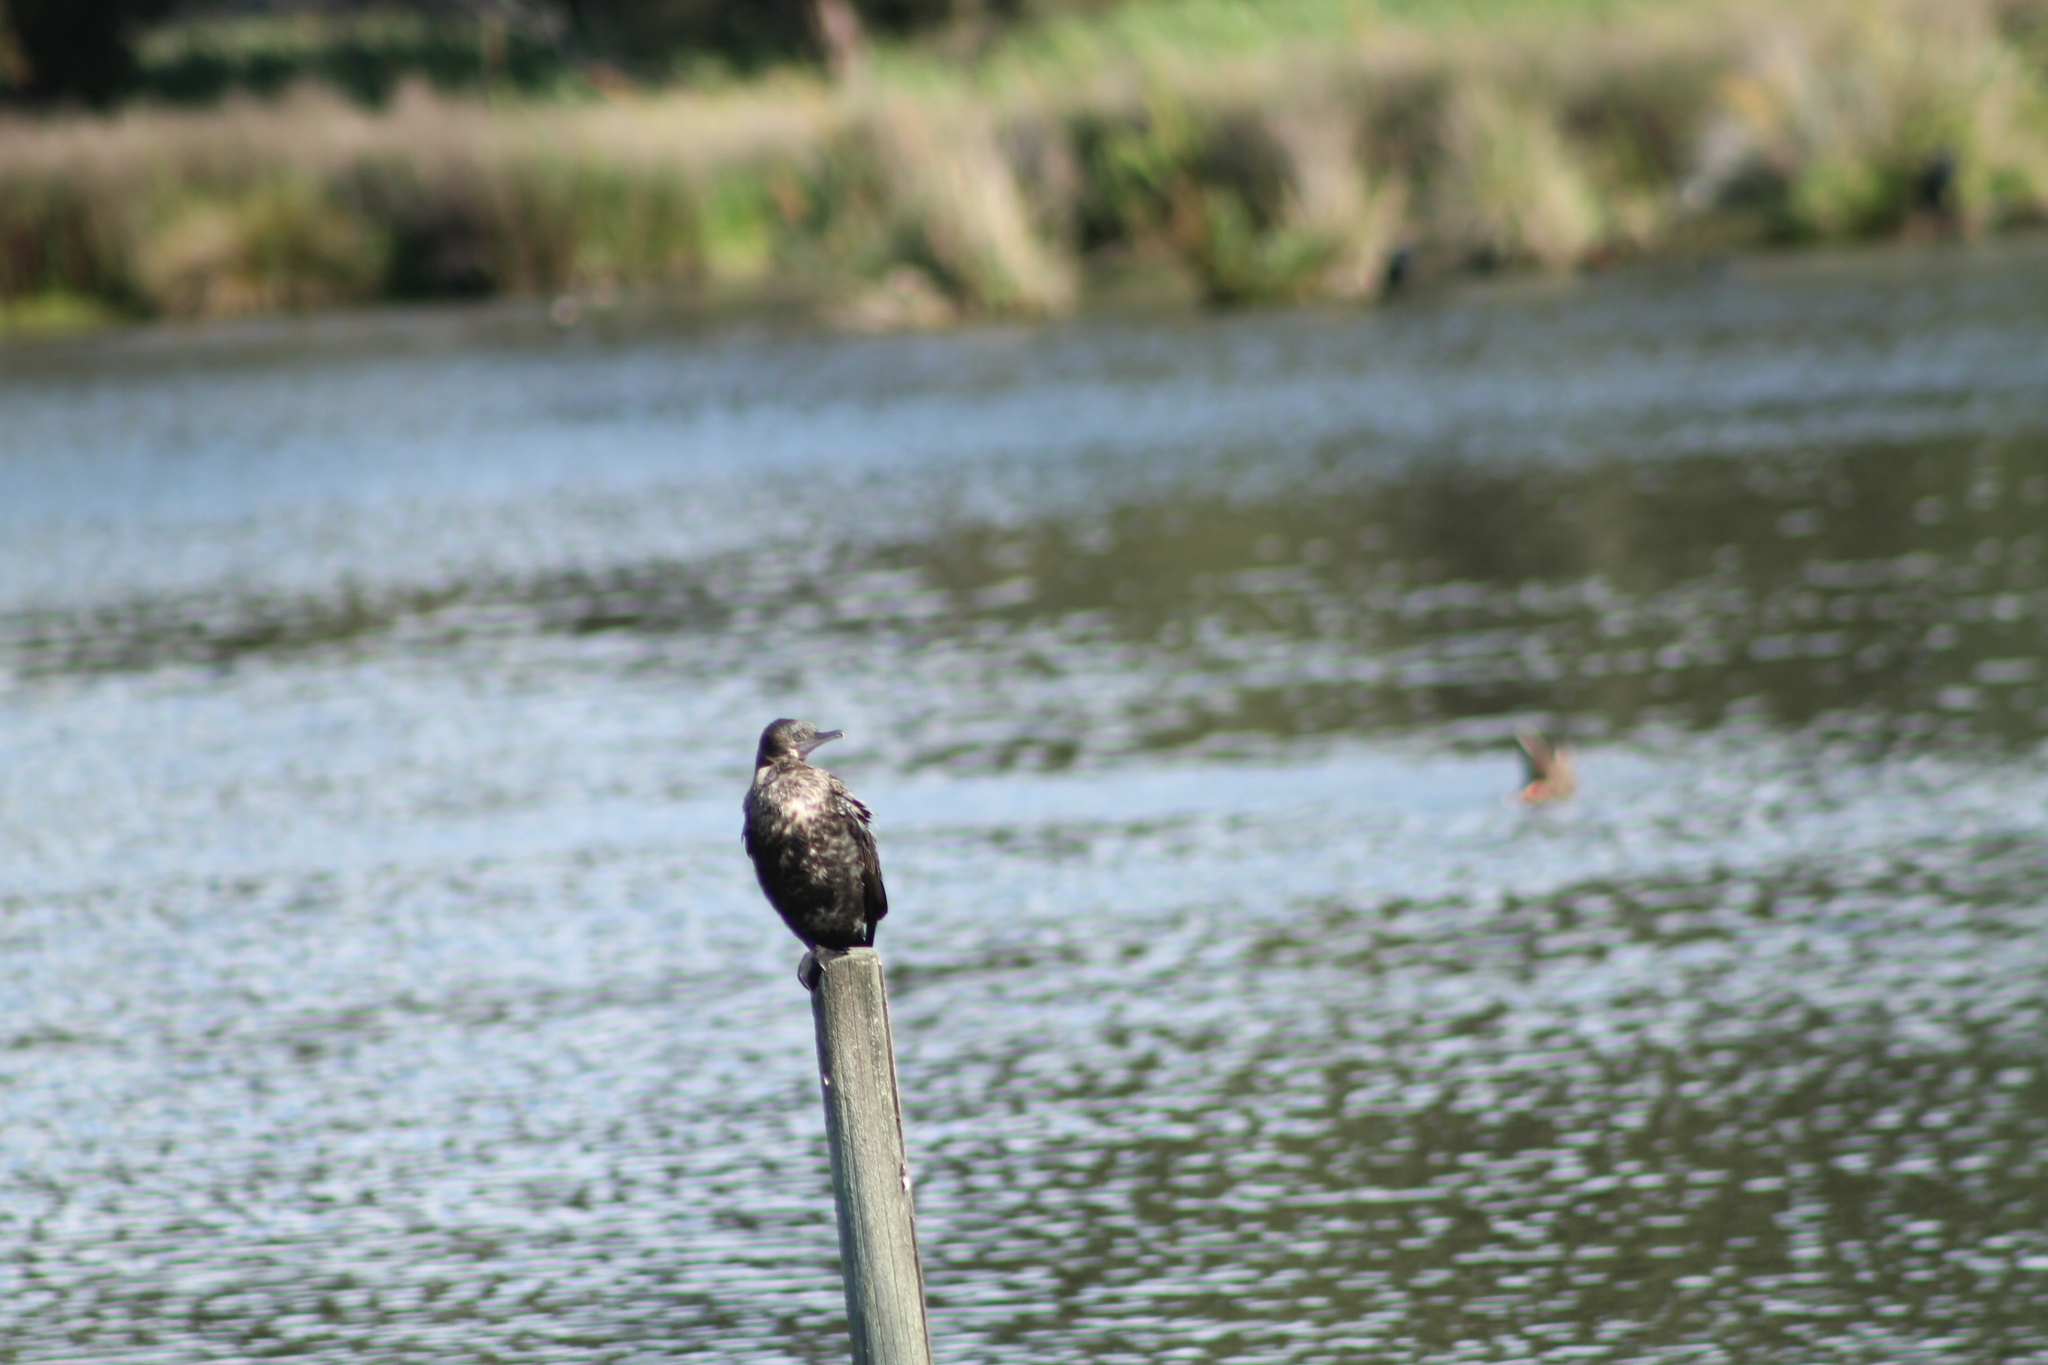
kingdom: Animalia
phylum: Chordata
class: Aves
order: Suliformes
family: Phalacrocoracidae
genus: Phalacrocorax
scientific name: Phalacrocorax sulcirostris
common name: Little black cormorant
